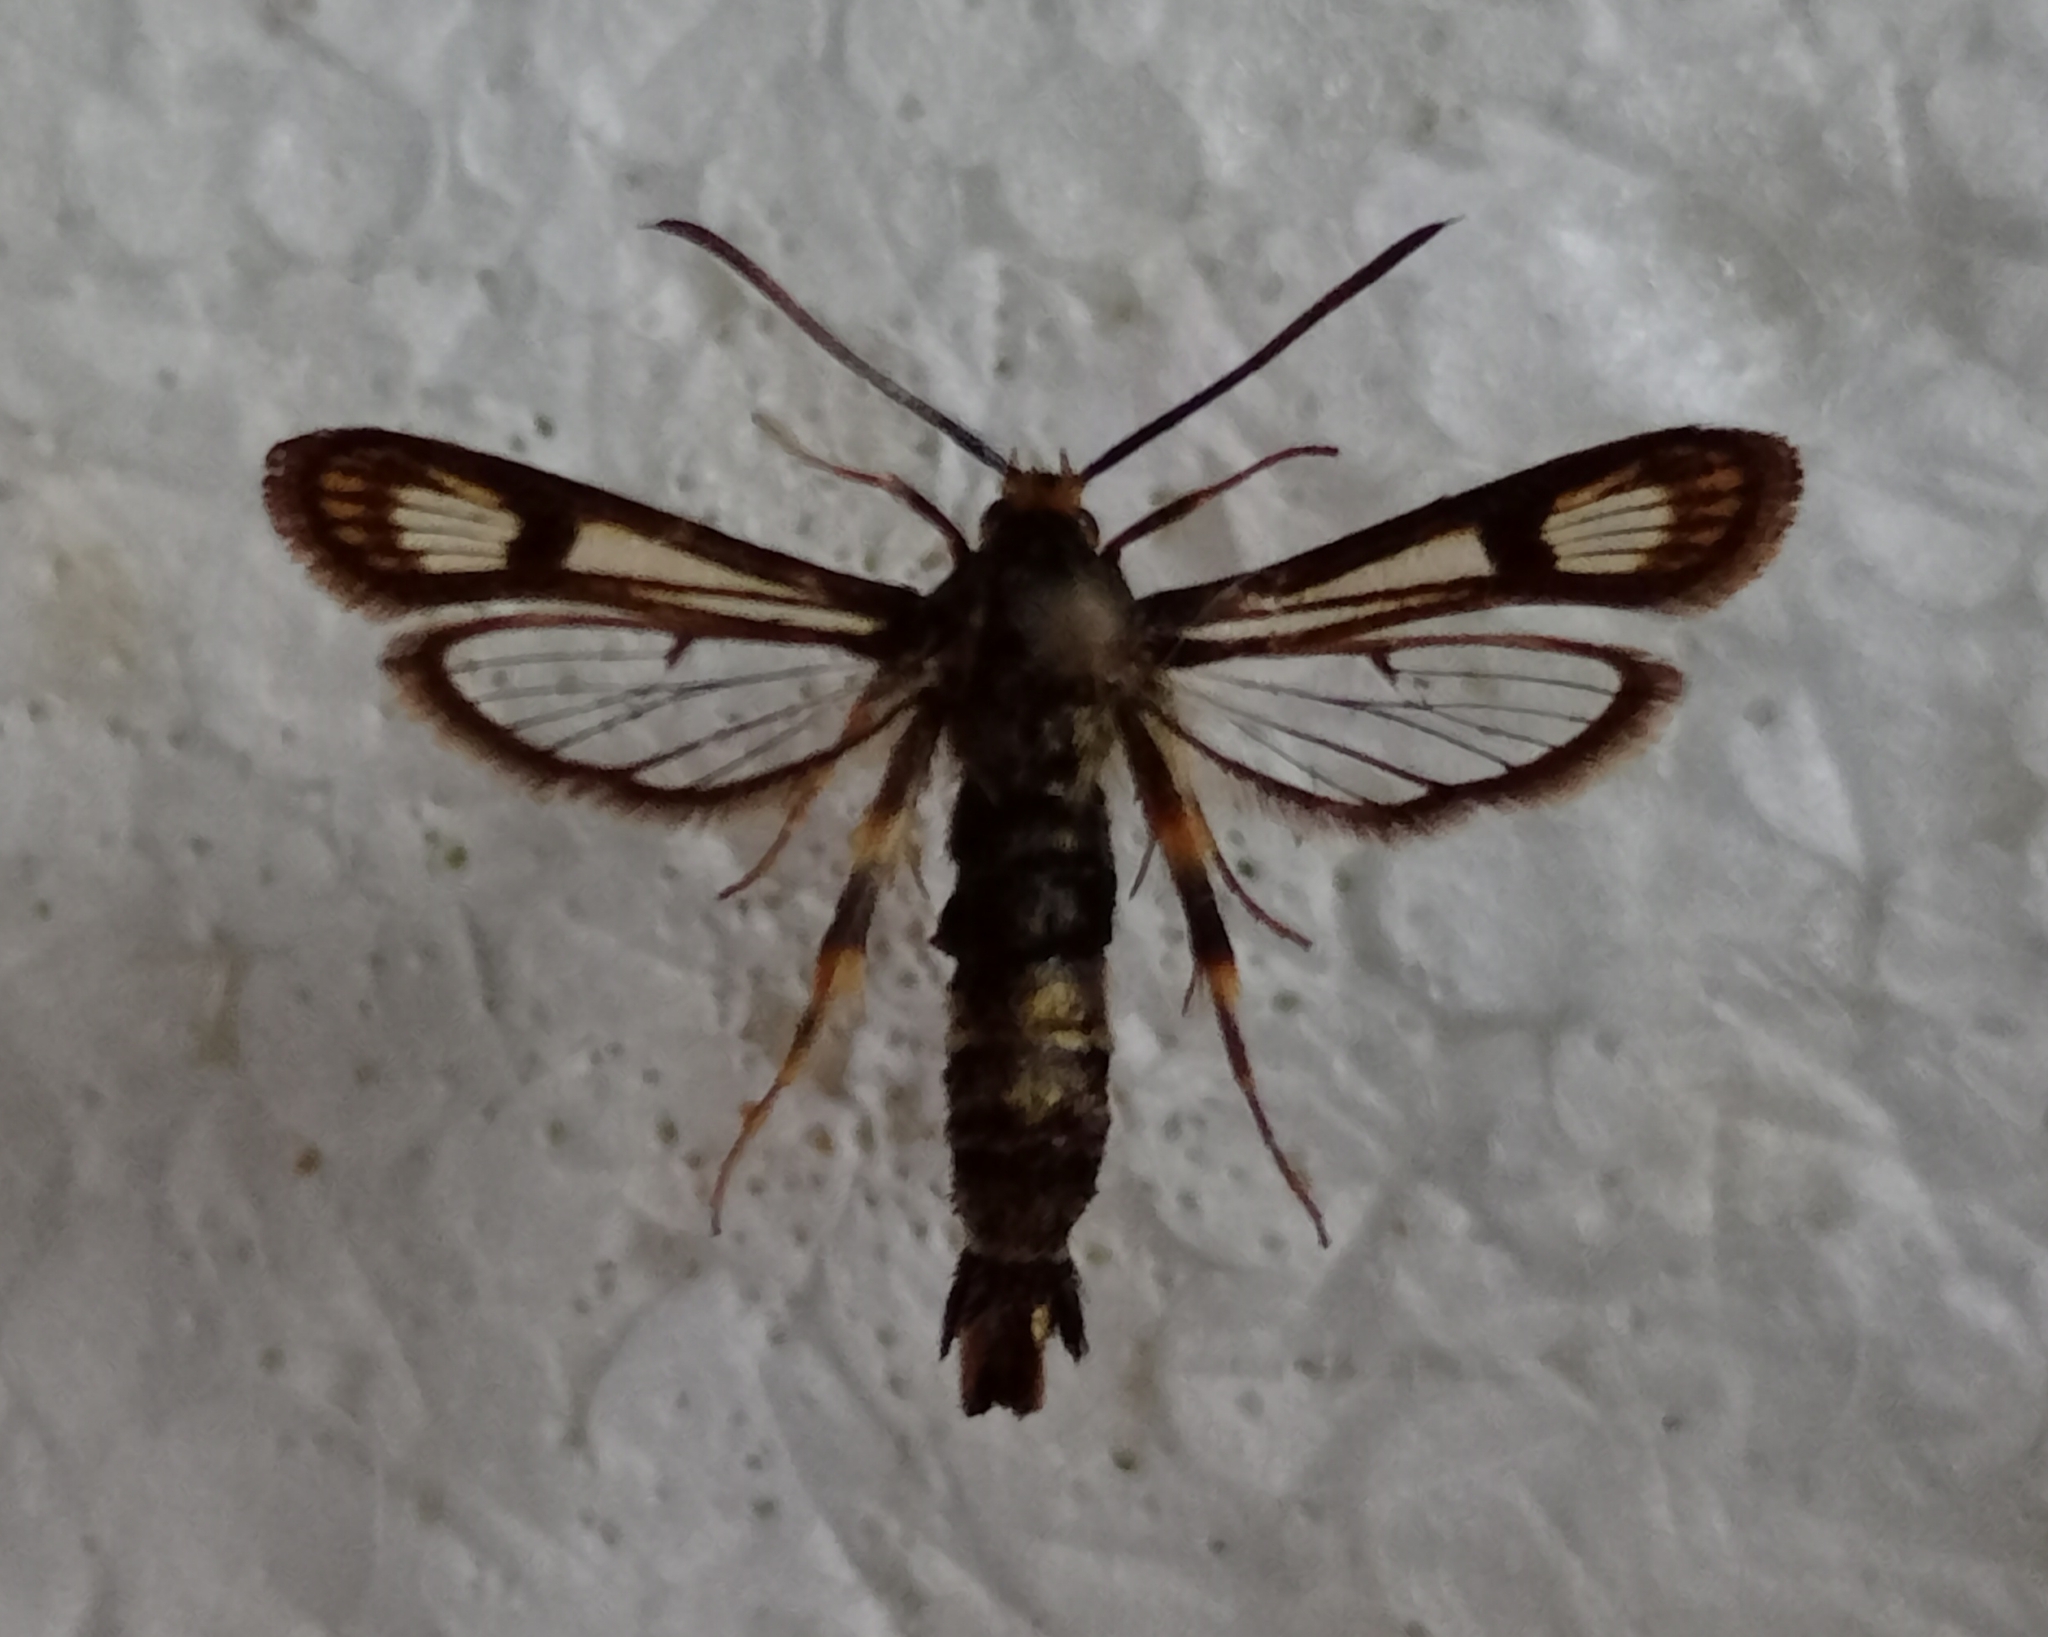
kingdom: Animalia
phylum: Arthropoda
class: Insecta
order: Lepidoptera
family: Sesiidae
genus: Chamaesphecia
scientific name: Chamaesphecia hungarica
